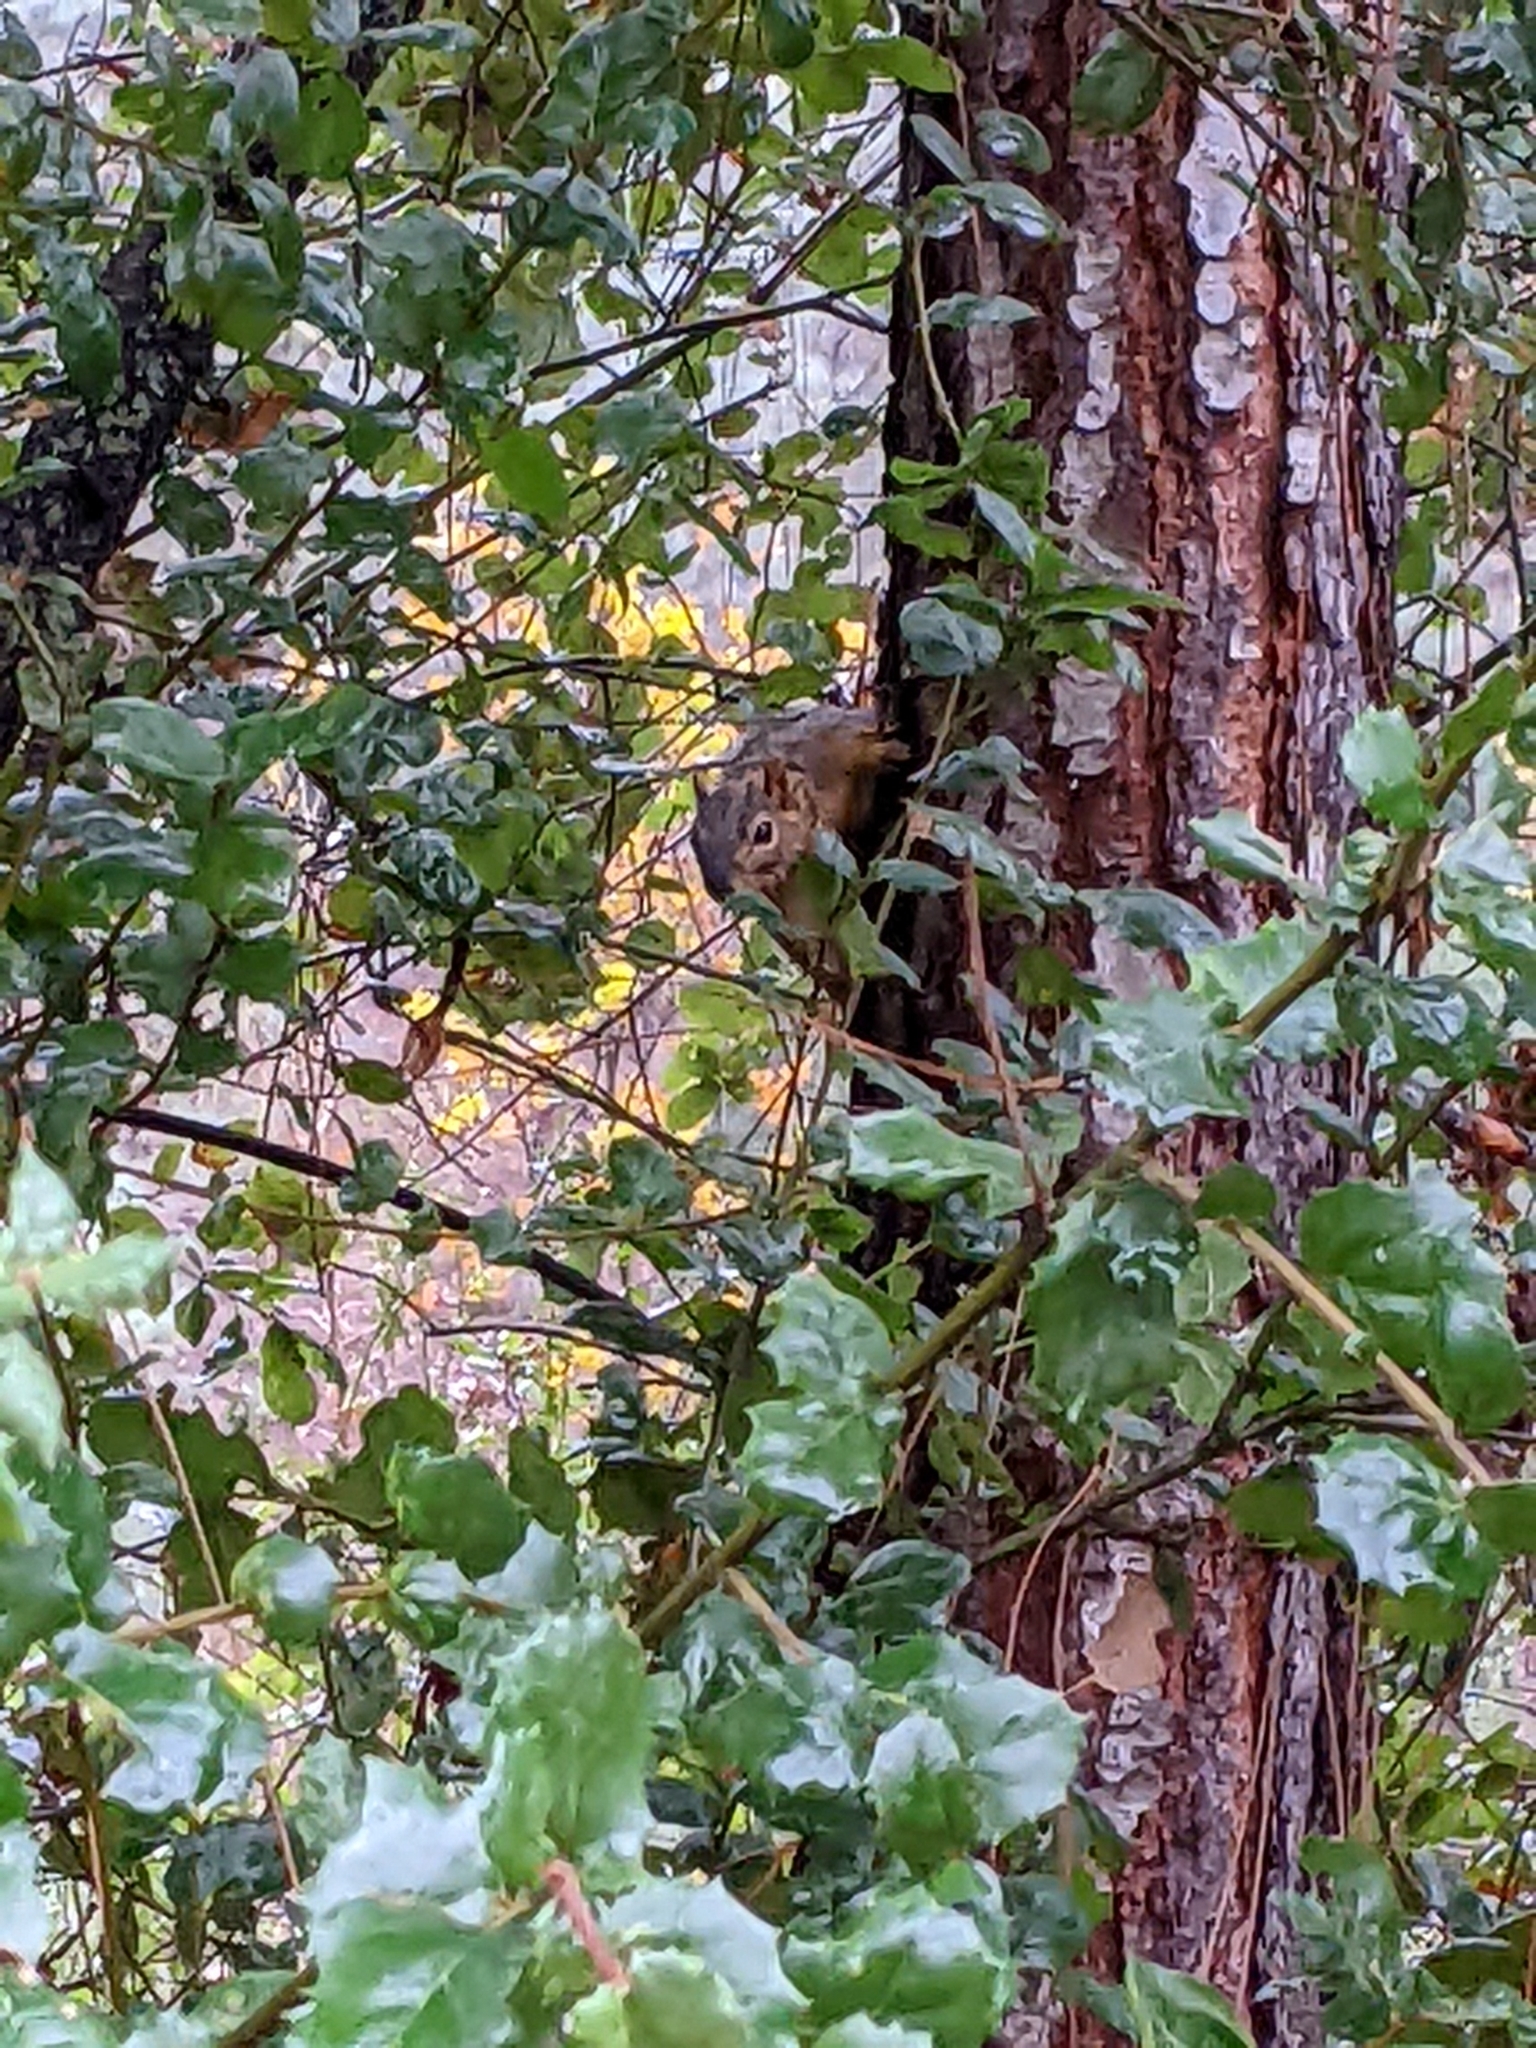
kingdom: Animalia
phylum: Chordata
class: Mammalia
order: Rodentia
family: Sciuridae
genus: Sciurus
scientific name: Sciurus niger
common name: Fox squirrel
